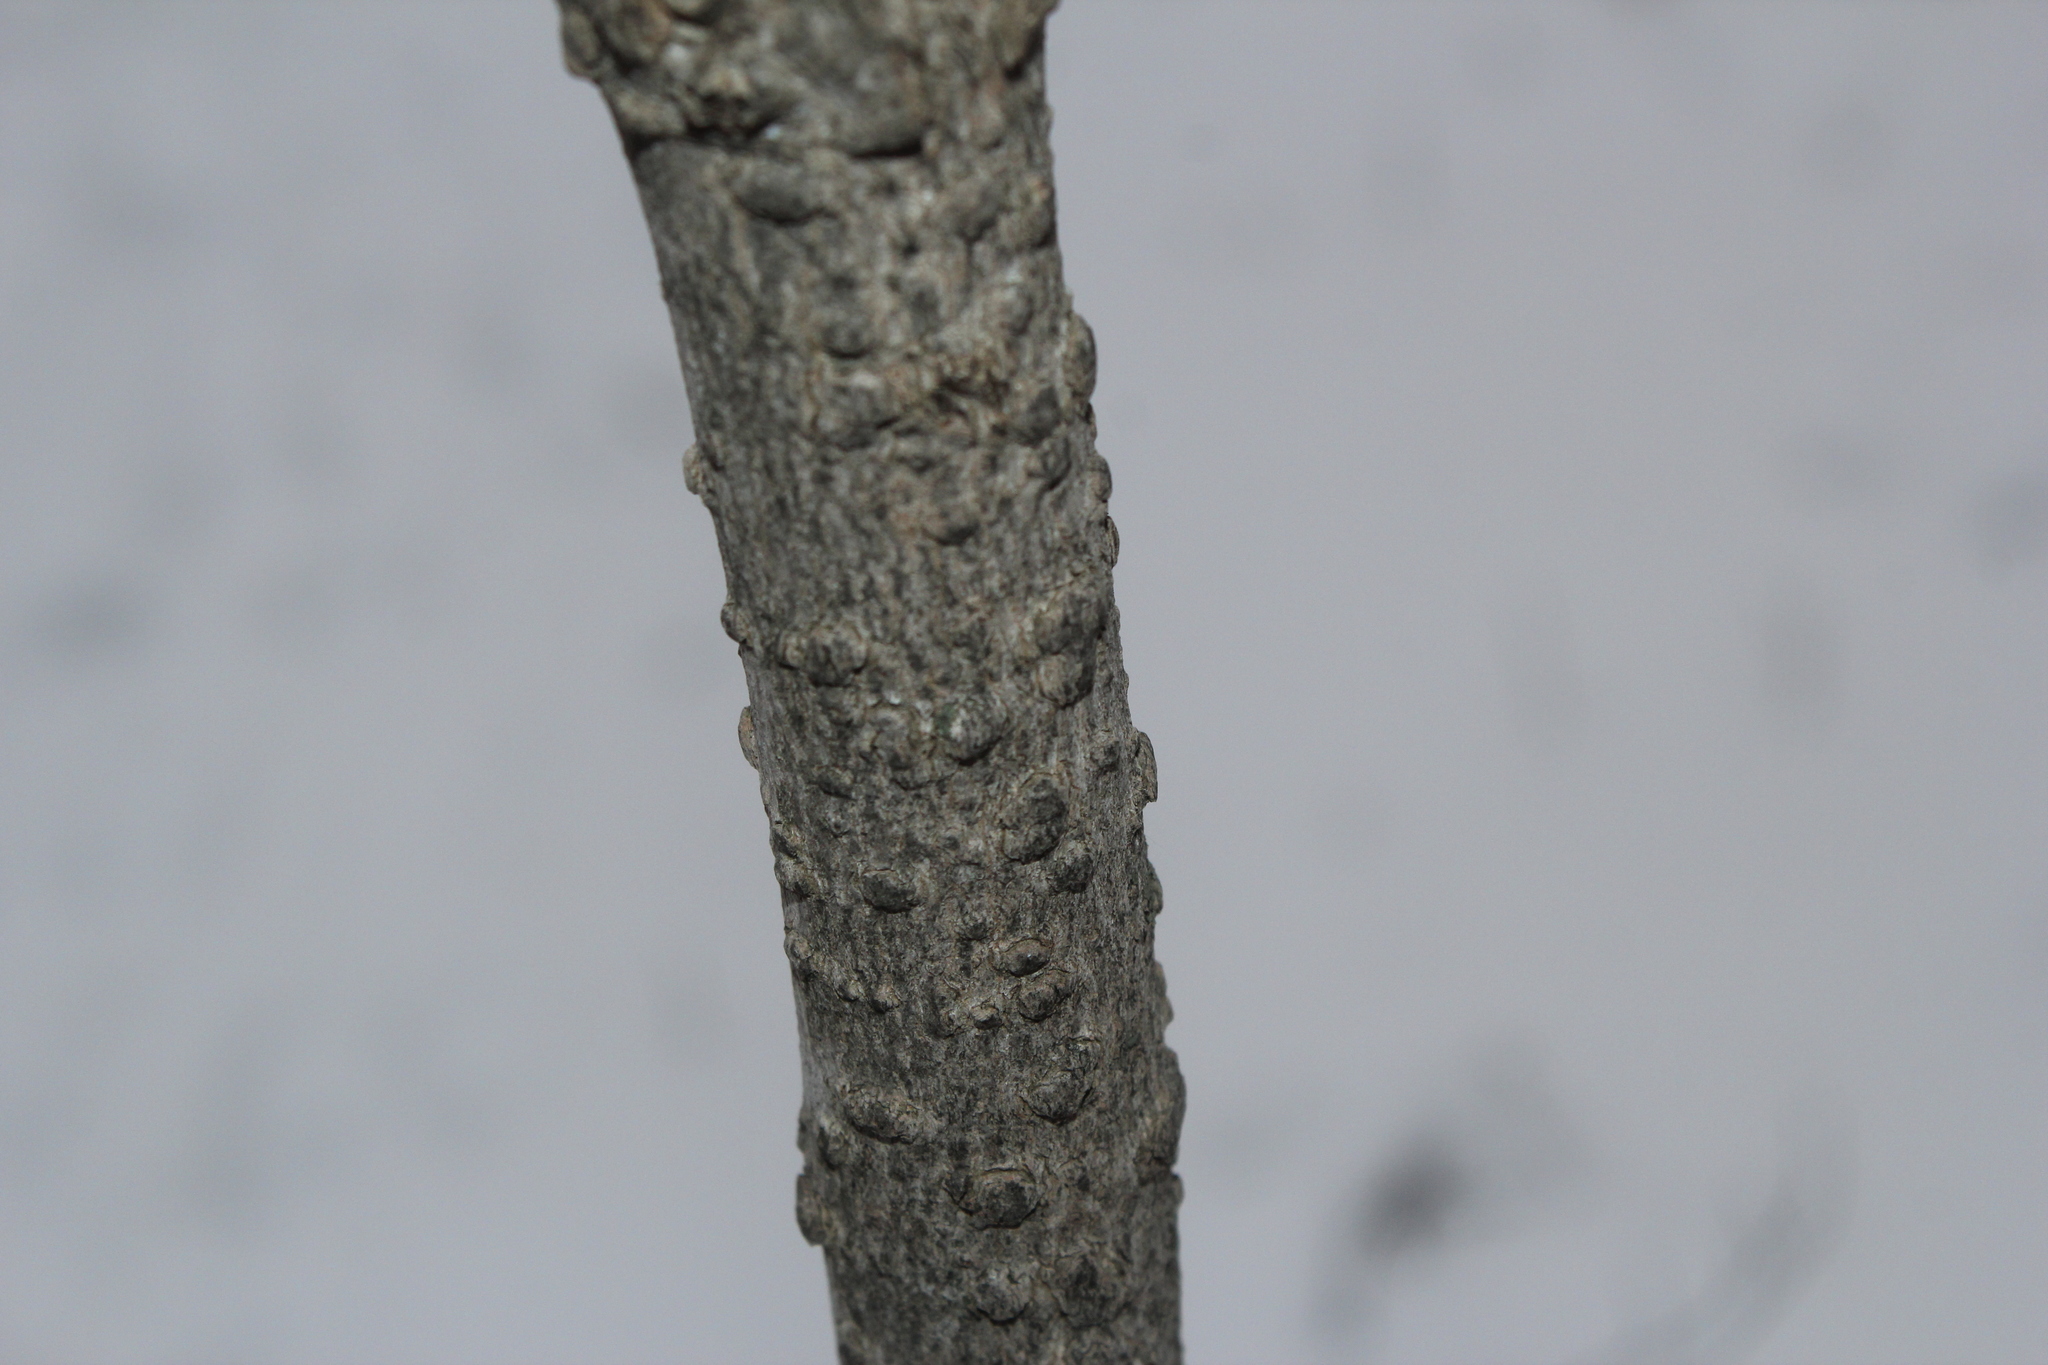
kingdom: Plantae
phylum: Tracheophyta
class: Magnoliopsida
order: Sapindales
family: Sapindaceae
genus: Acer
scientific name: Acer saccharum
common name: Sugar maple
